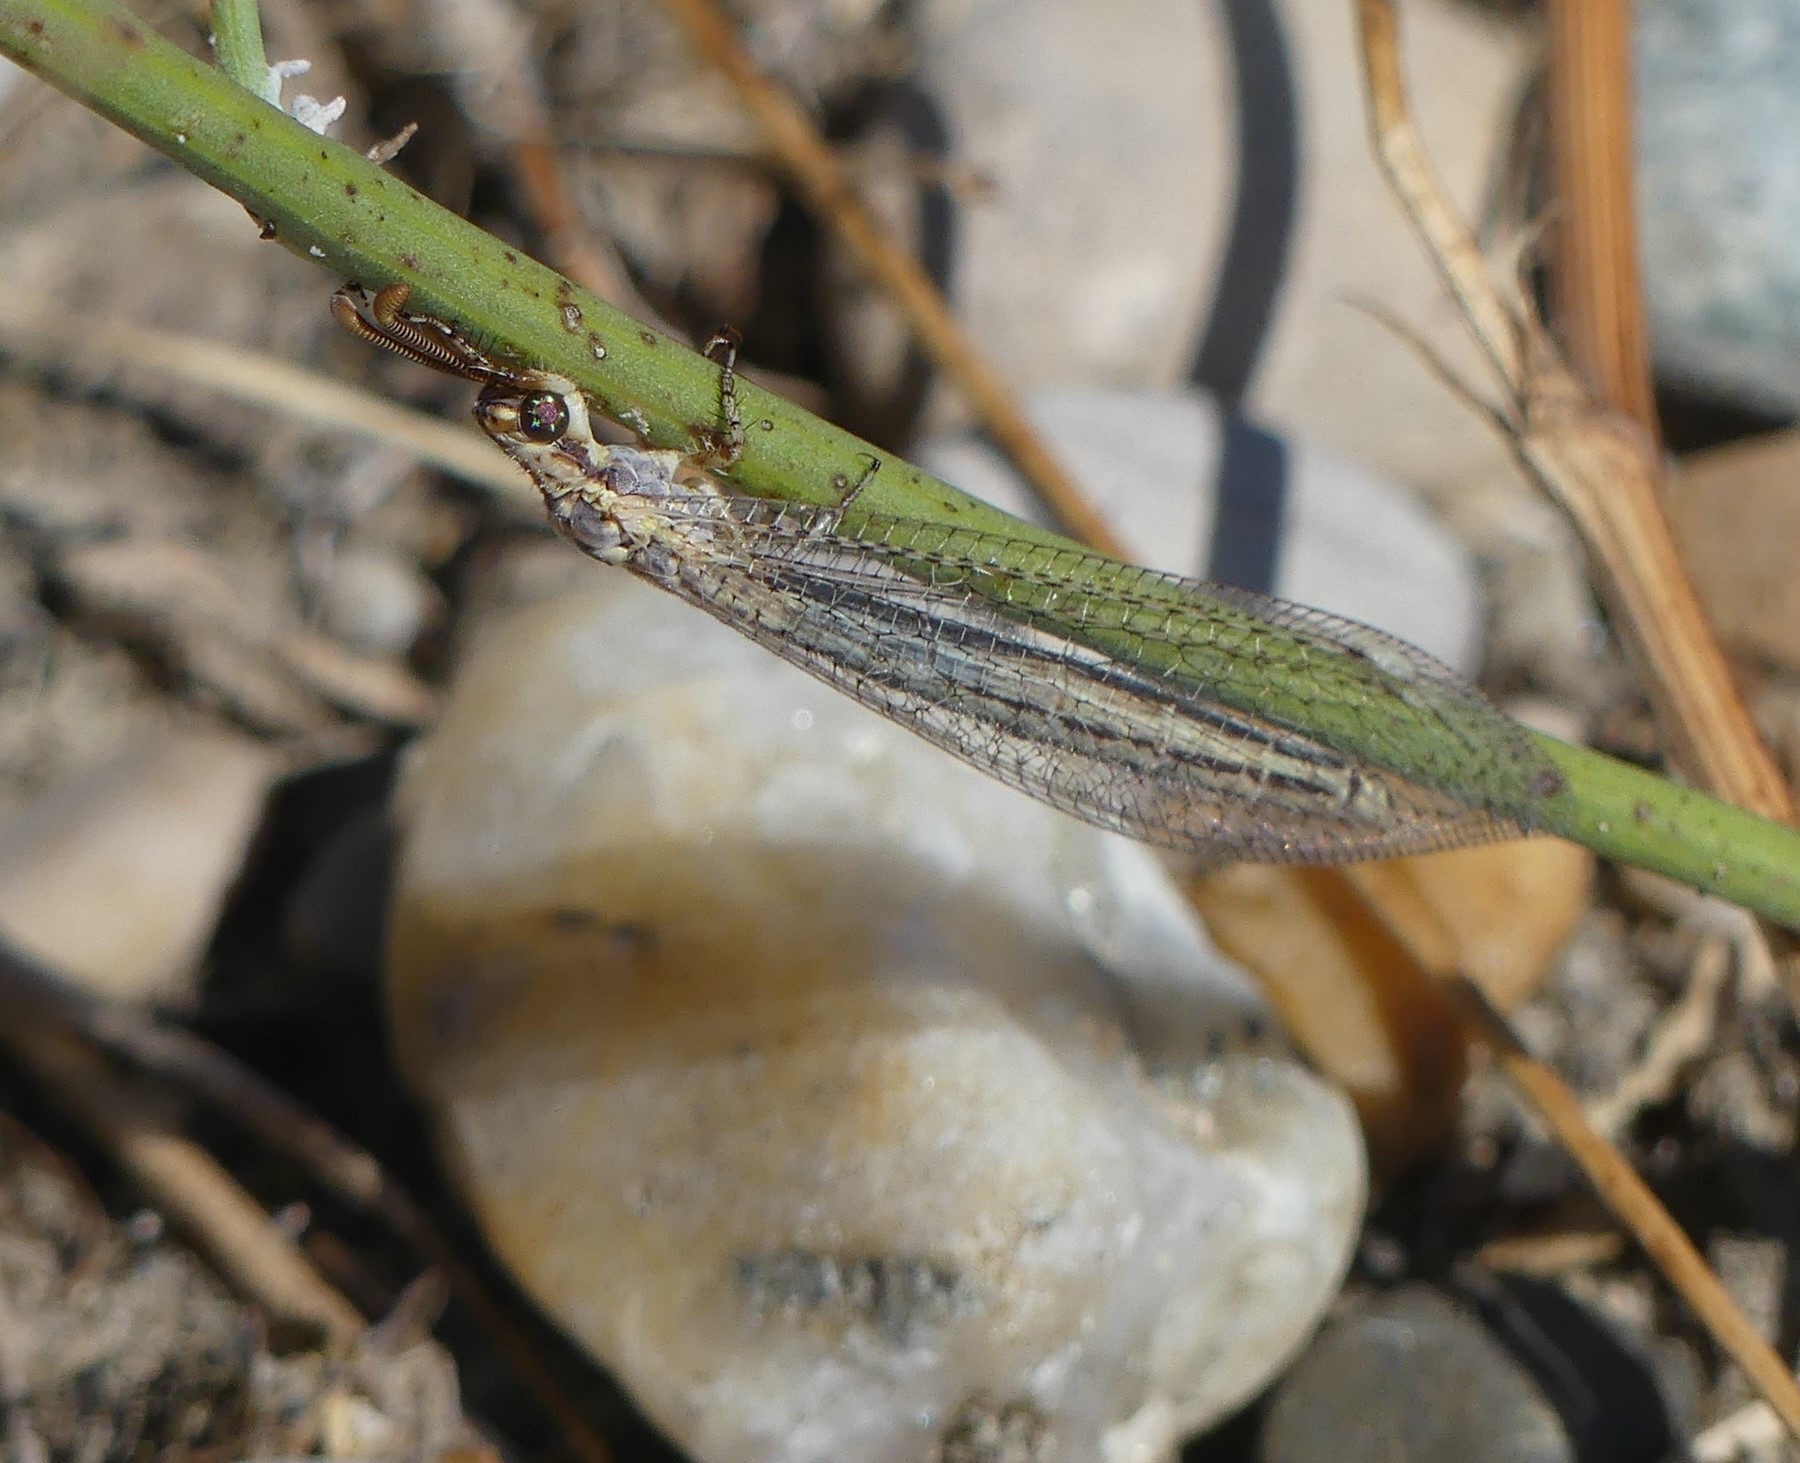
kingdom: Animalia
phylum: Arthropoda
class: Insecta
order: Neuroptera
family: Myrmeleontidae
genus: Macronemurus
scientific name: Macronemurus appendiculatus
